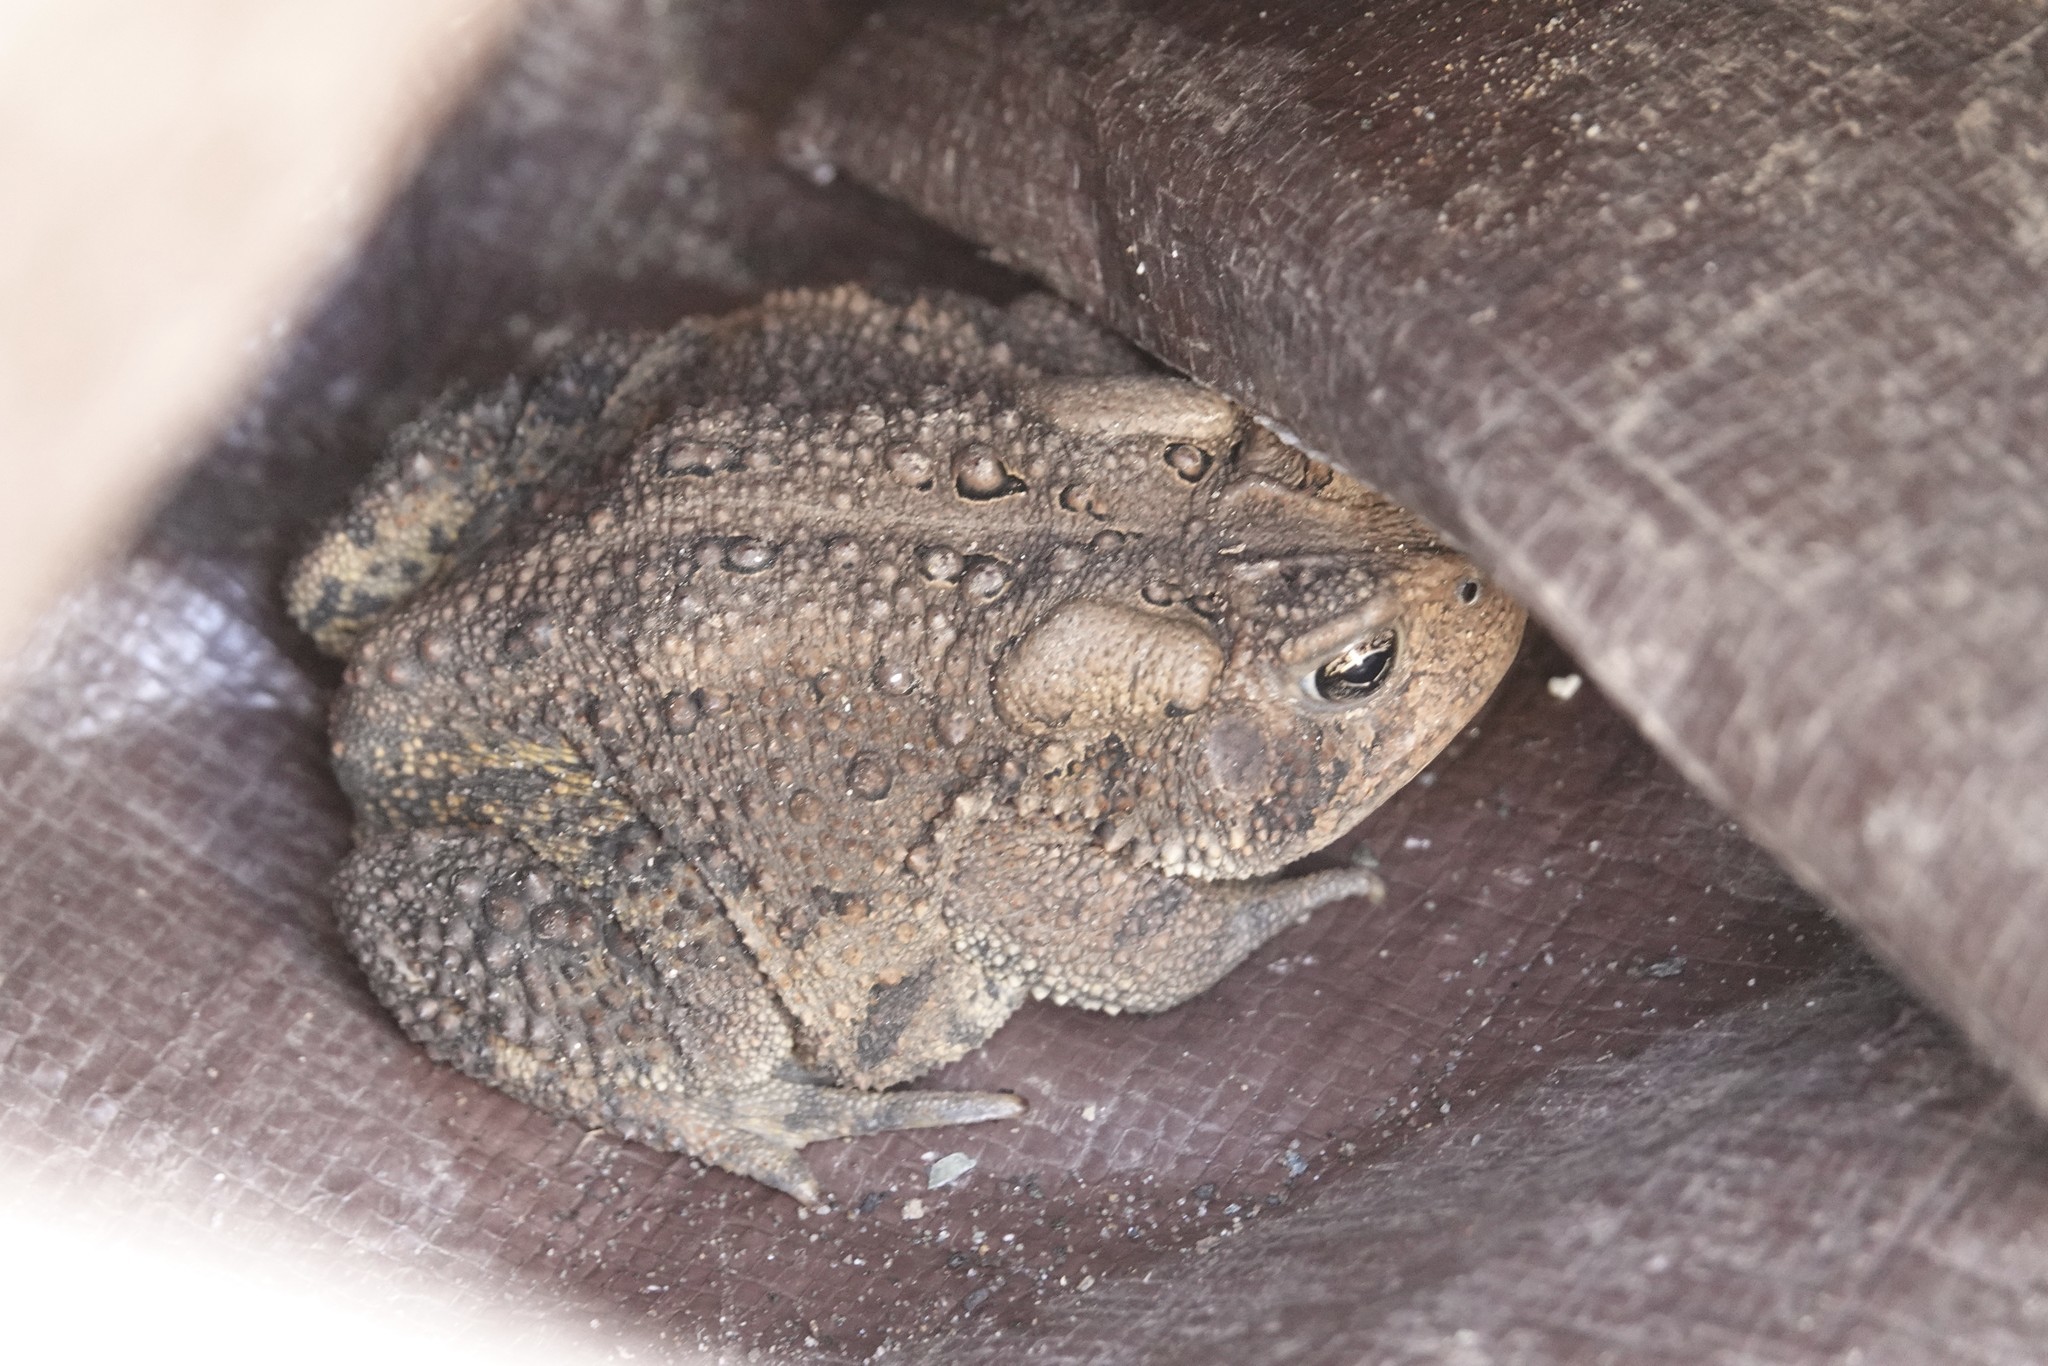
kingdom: Animalia
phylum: Chordata
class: Amphibia
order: Anura
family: Bufonidae
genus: Anaxyrus
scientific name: Anaxyrus americanus
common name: American toad
